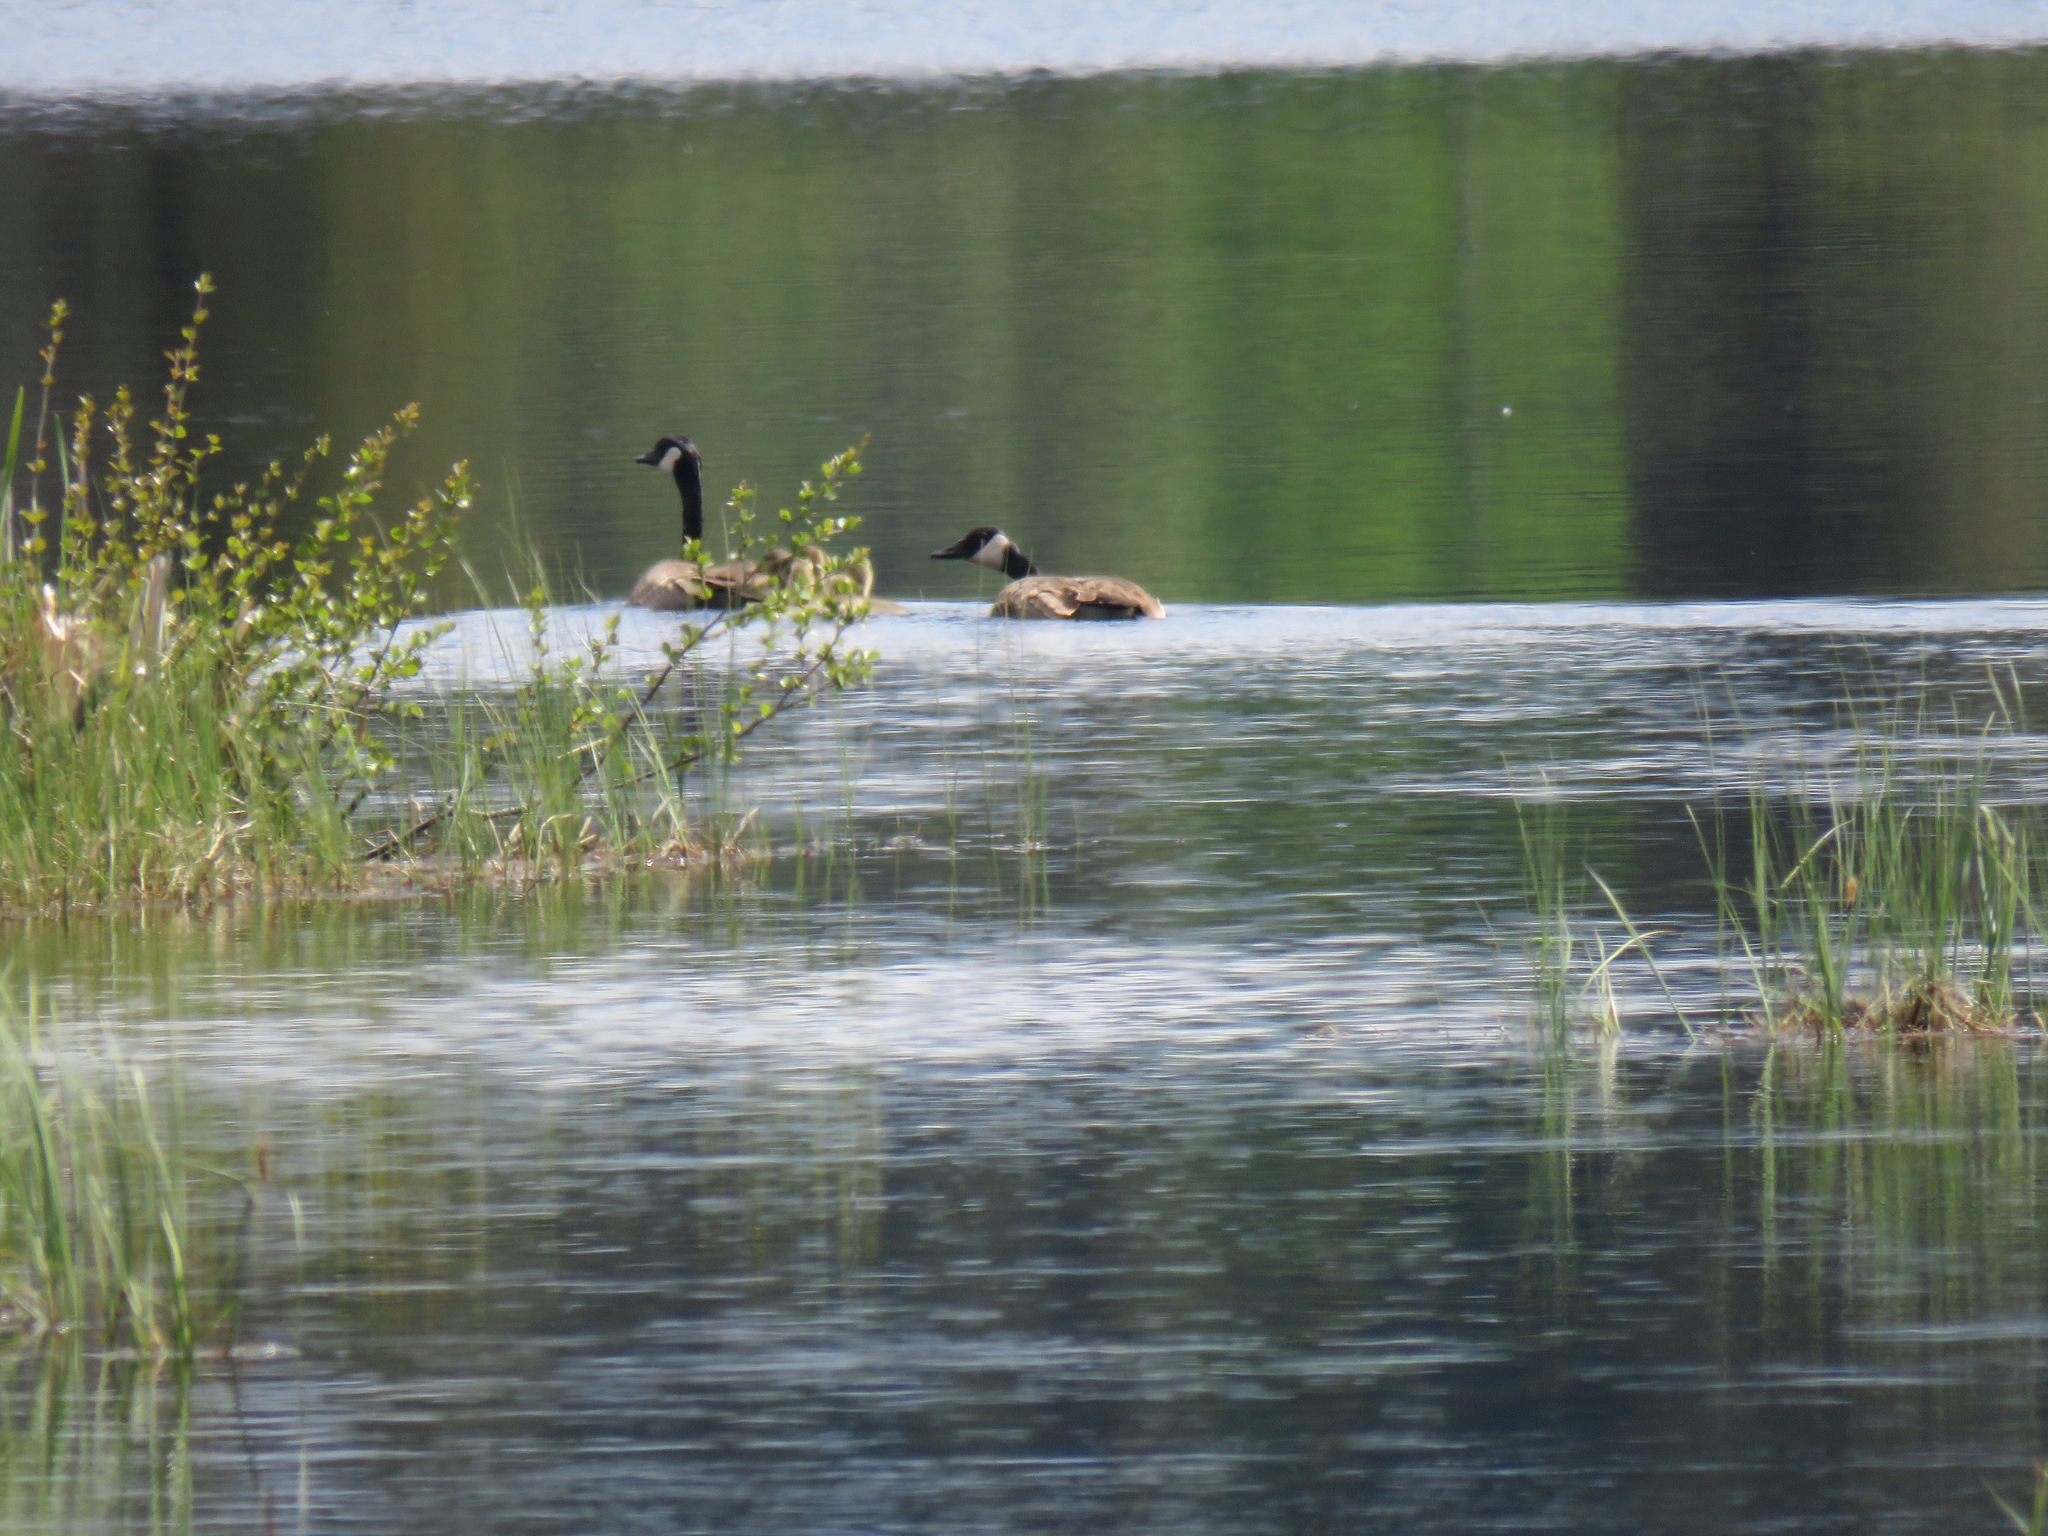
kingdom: Animalia
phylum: Chordata
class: Aves
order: Anseriformes
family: Anatidae
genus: Branta
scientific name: Branta canadensis
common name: Canada goose
